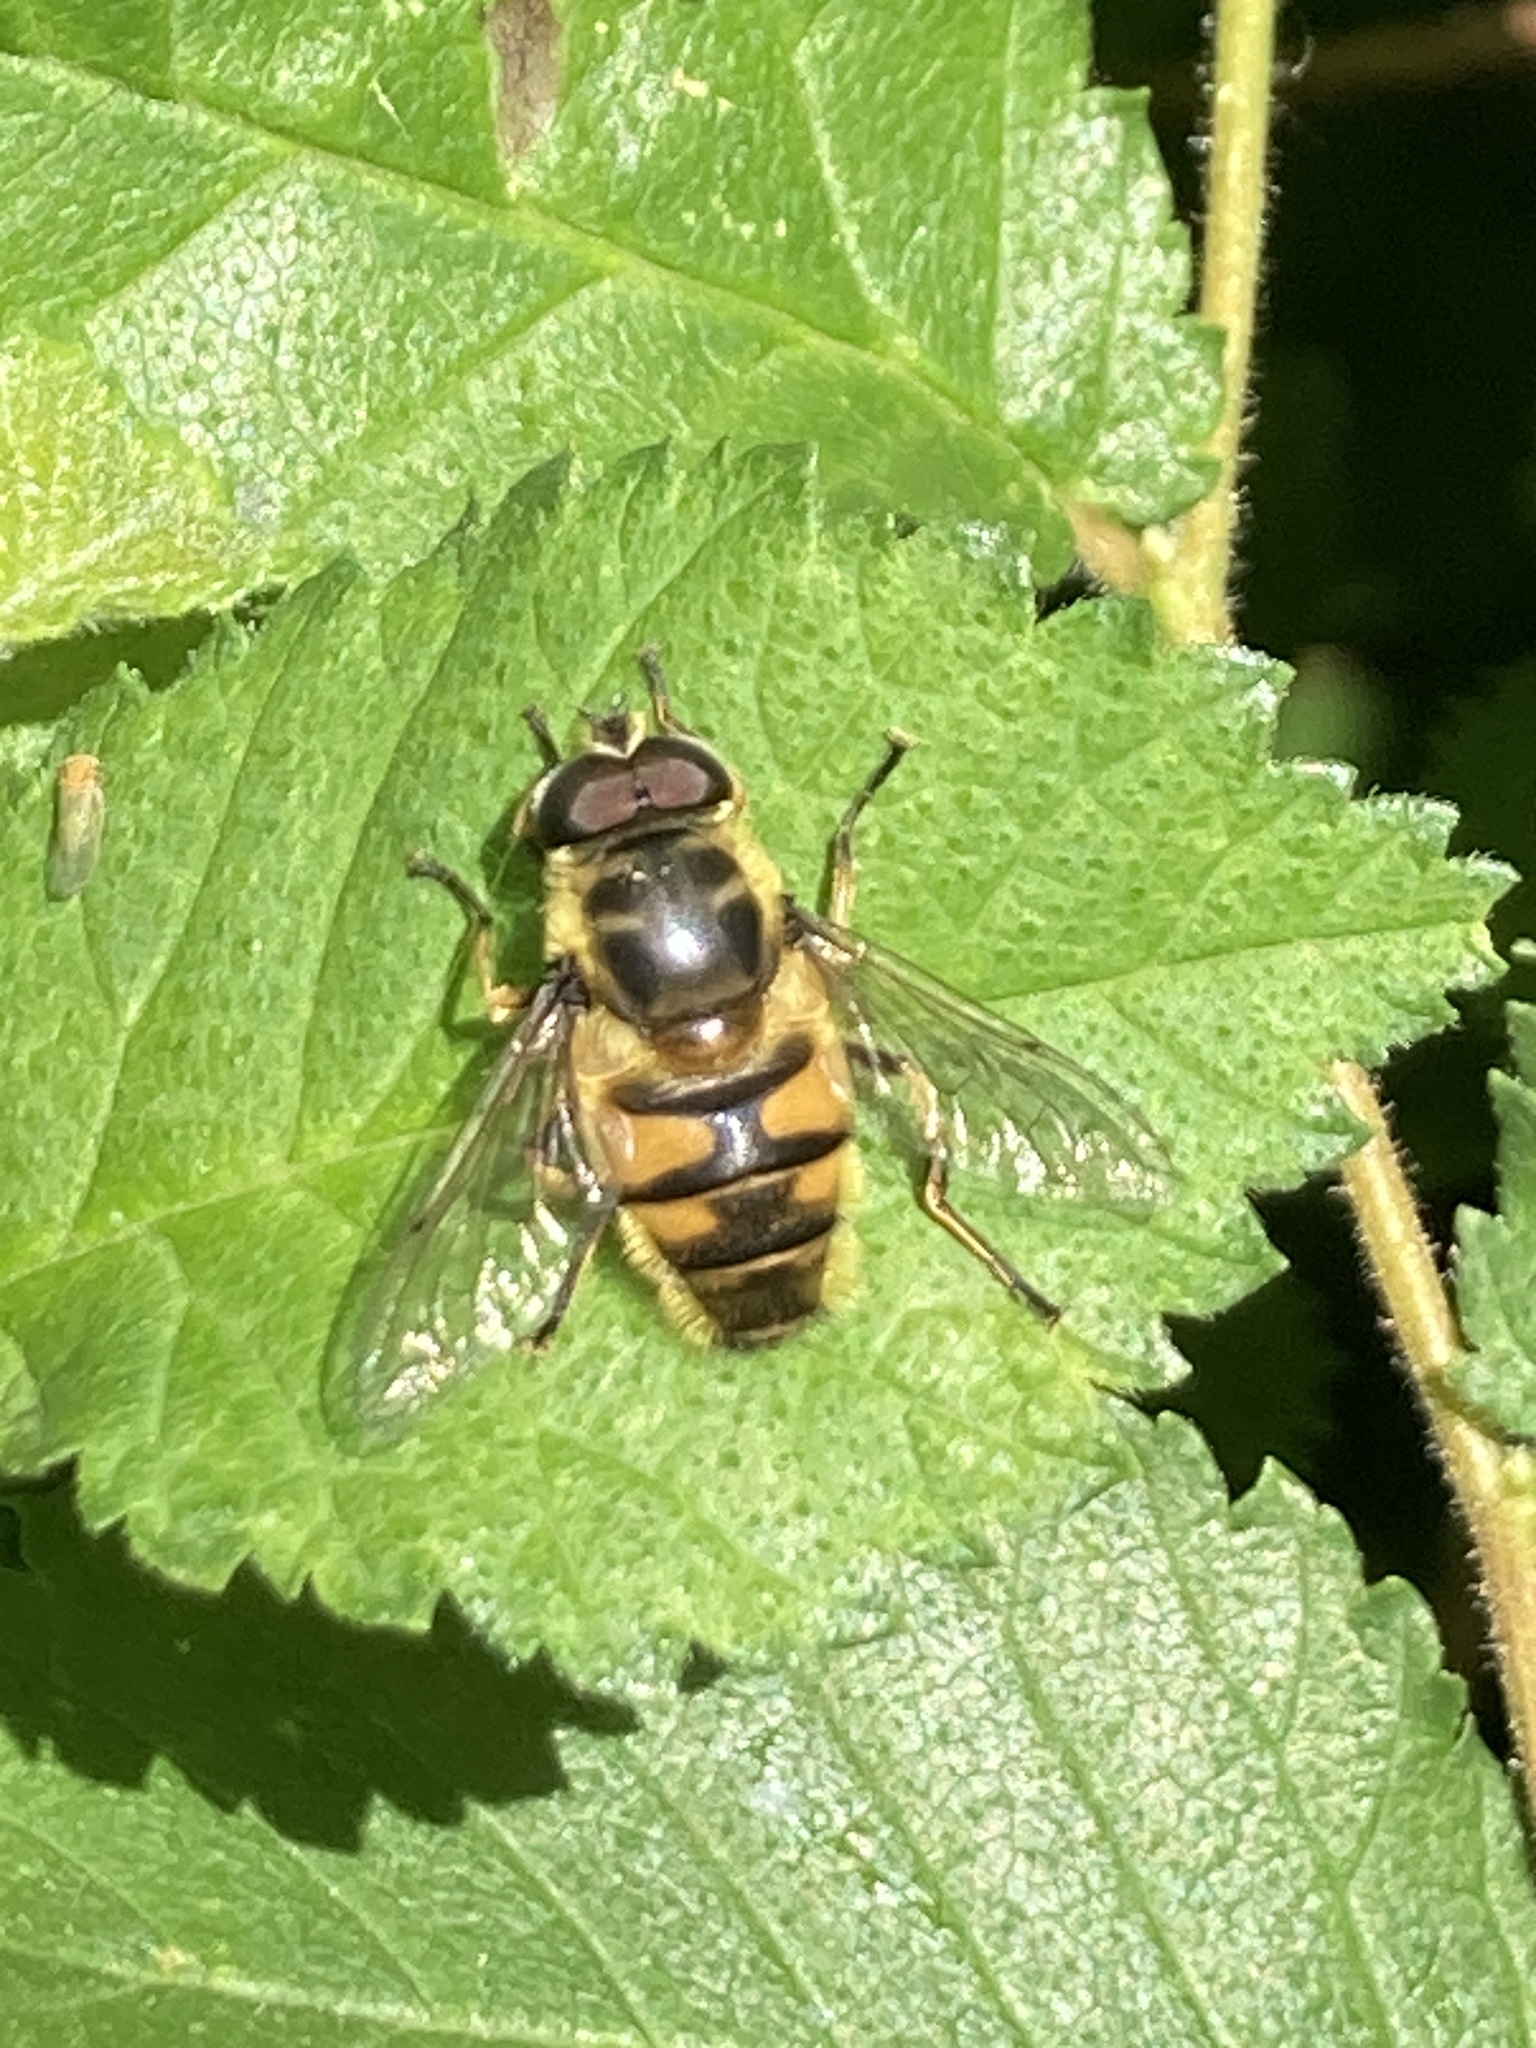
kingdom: Animalia
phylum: Arthropoda
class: Insecta
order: Diptera
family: Syrphidae
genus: Myathropa
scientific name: Myathropa florea
